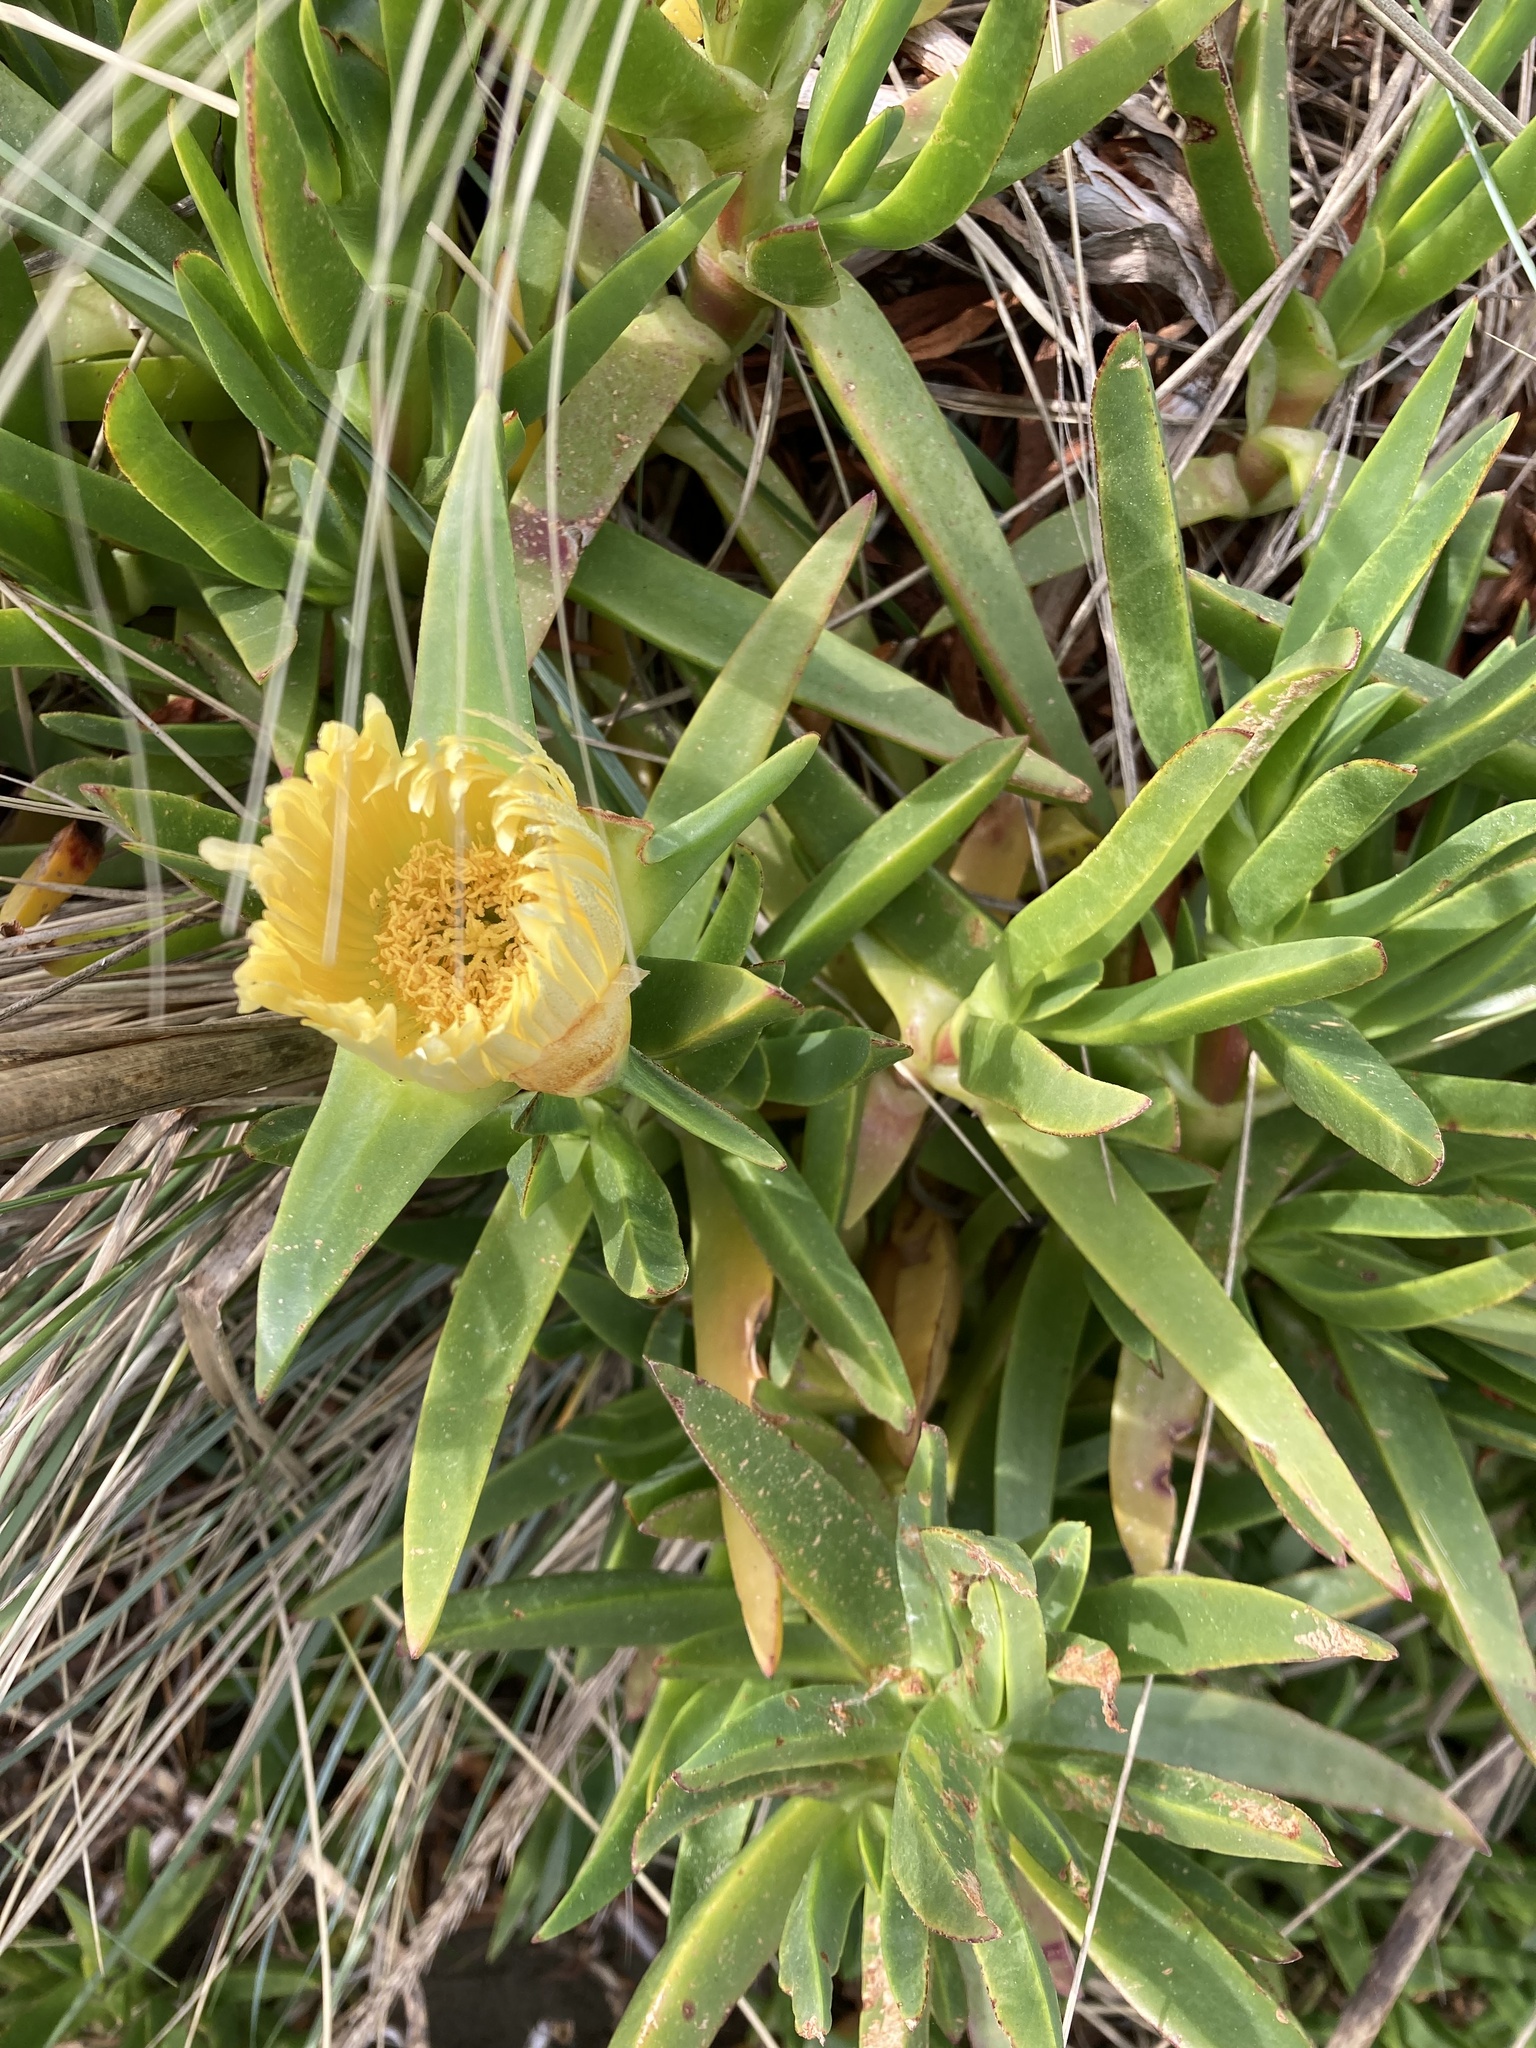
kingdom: Plantae
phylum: Tracheophyta
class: Magnoliopsida
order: Caryophyllales
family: Aizoaceae
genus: Carpobrotus
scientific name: Carpobrotus edulis
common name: Hottentot-fig
